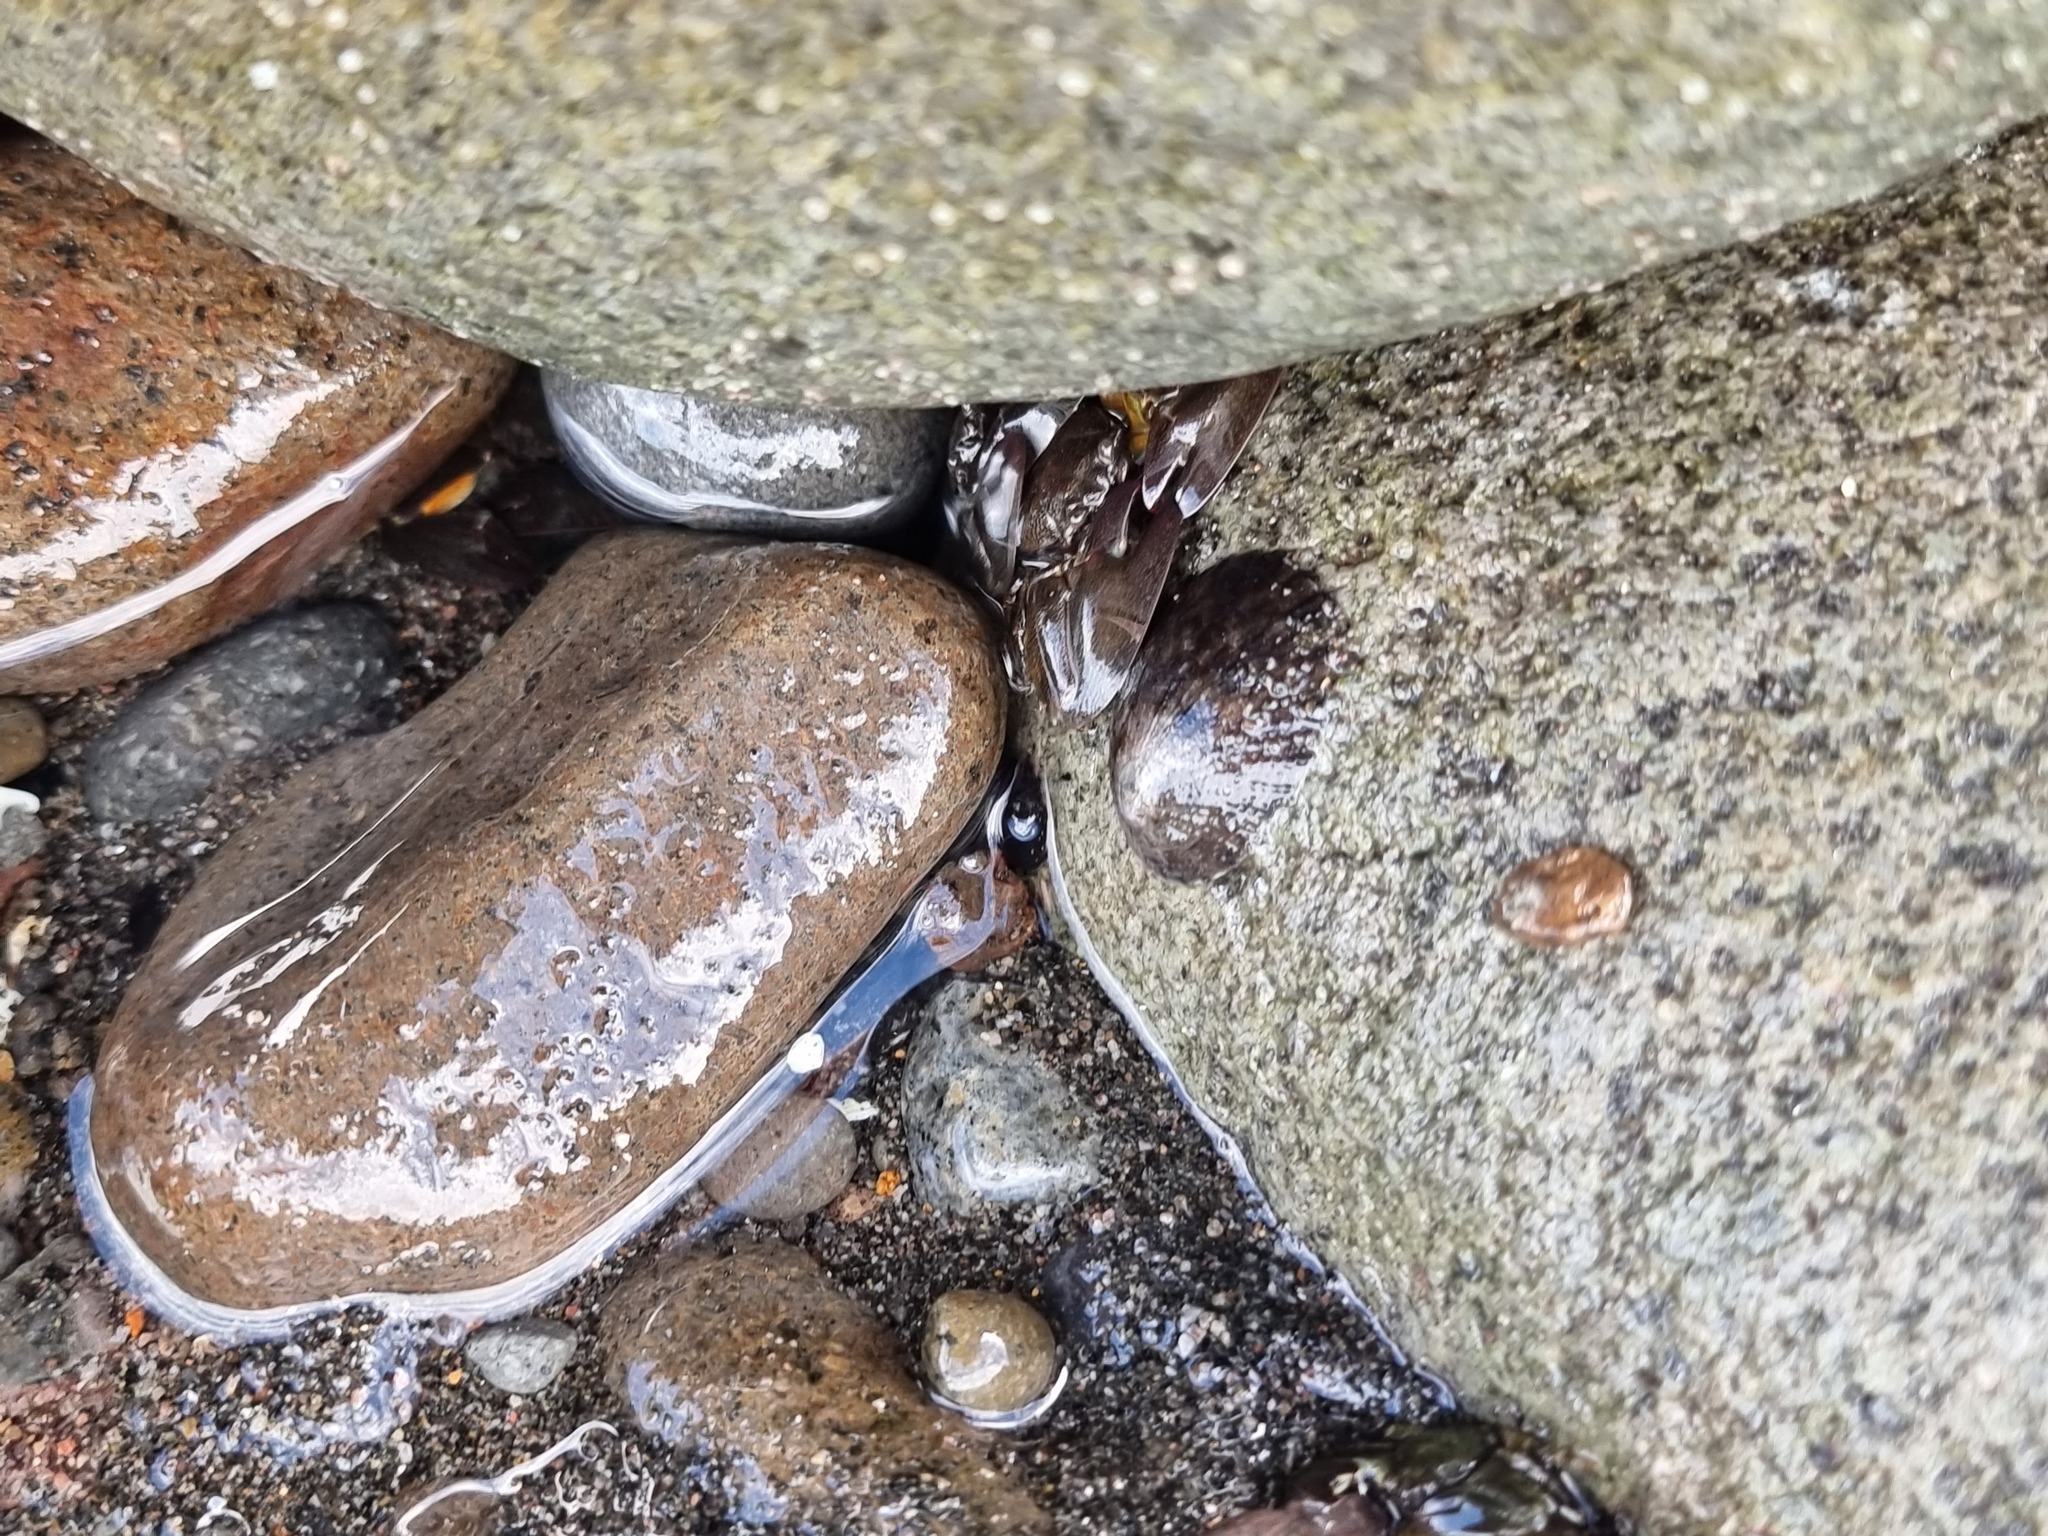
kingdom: Animalia
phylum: Arthropoda
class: Malacostraca
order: Decapoda
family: Porcellanidae
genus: Petrolisthes
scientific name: Petrolisthes elongatus
